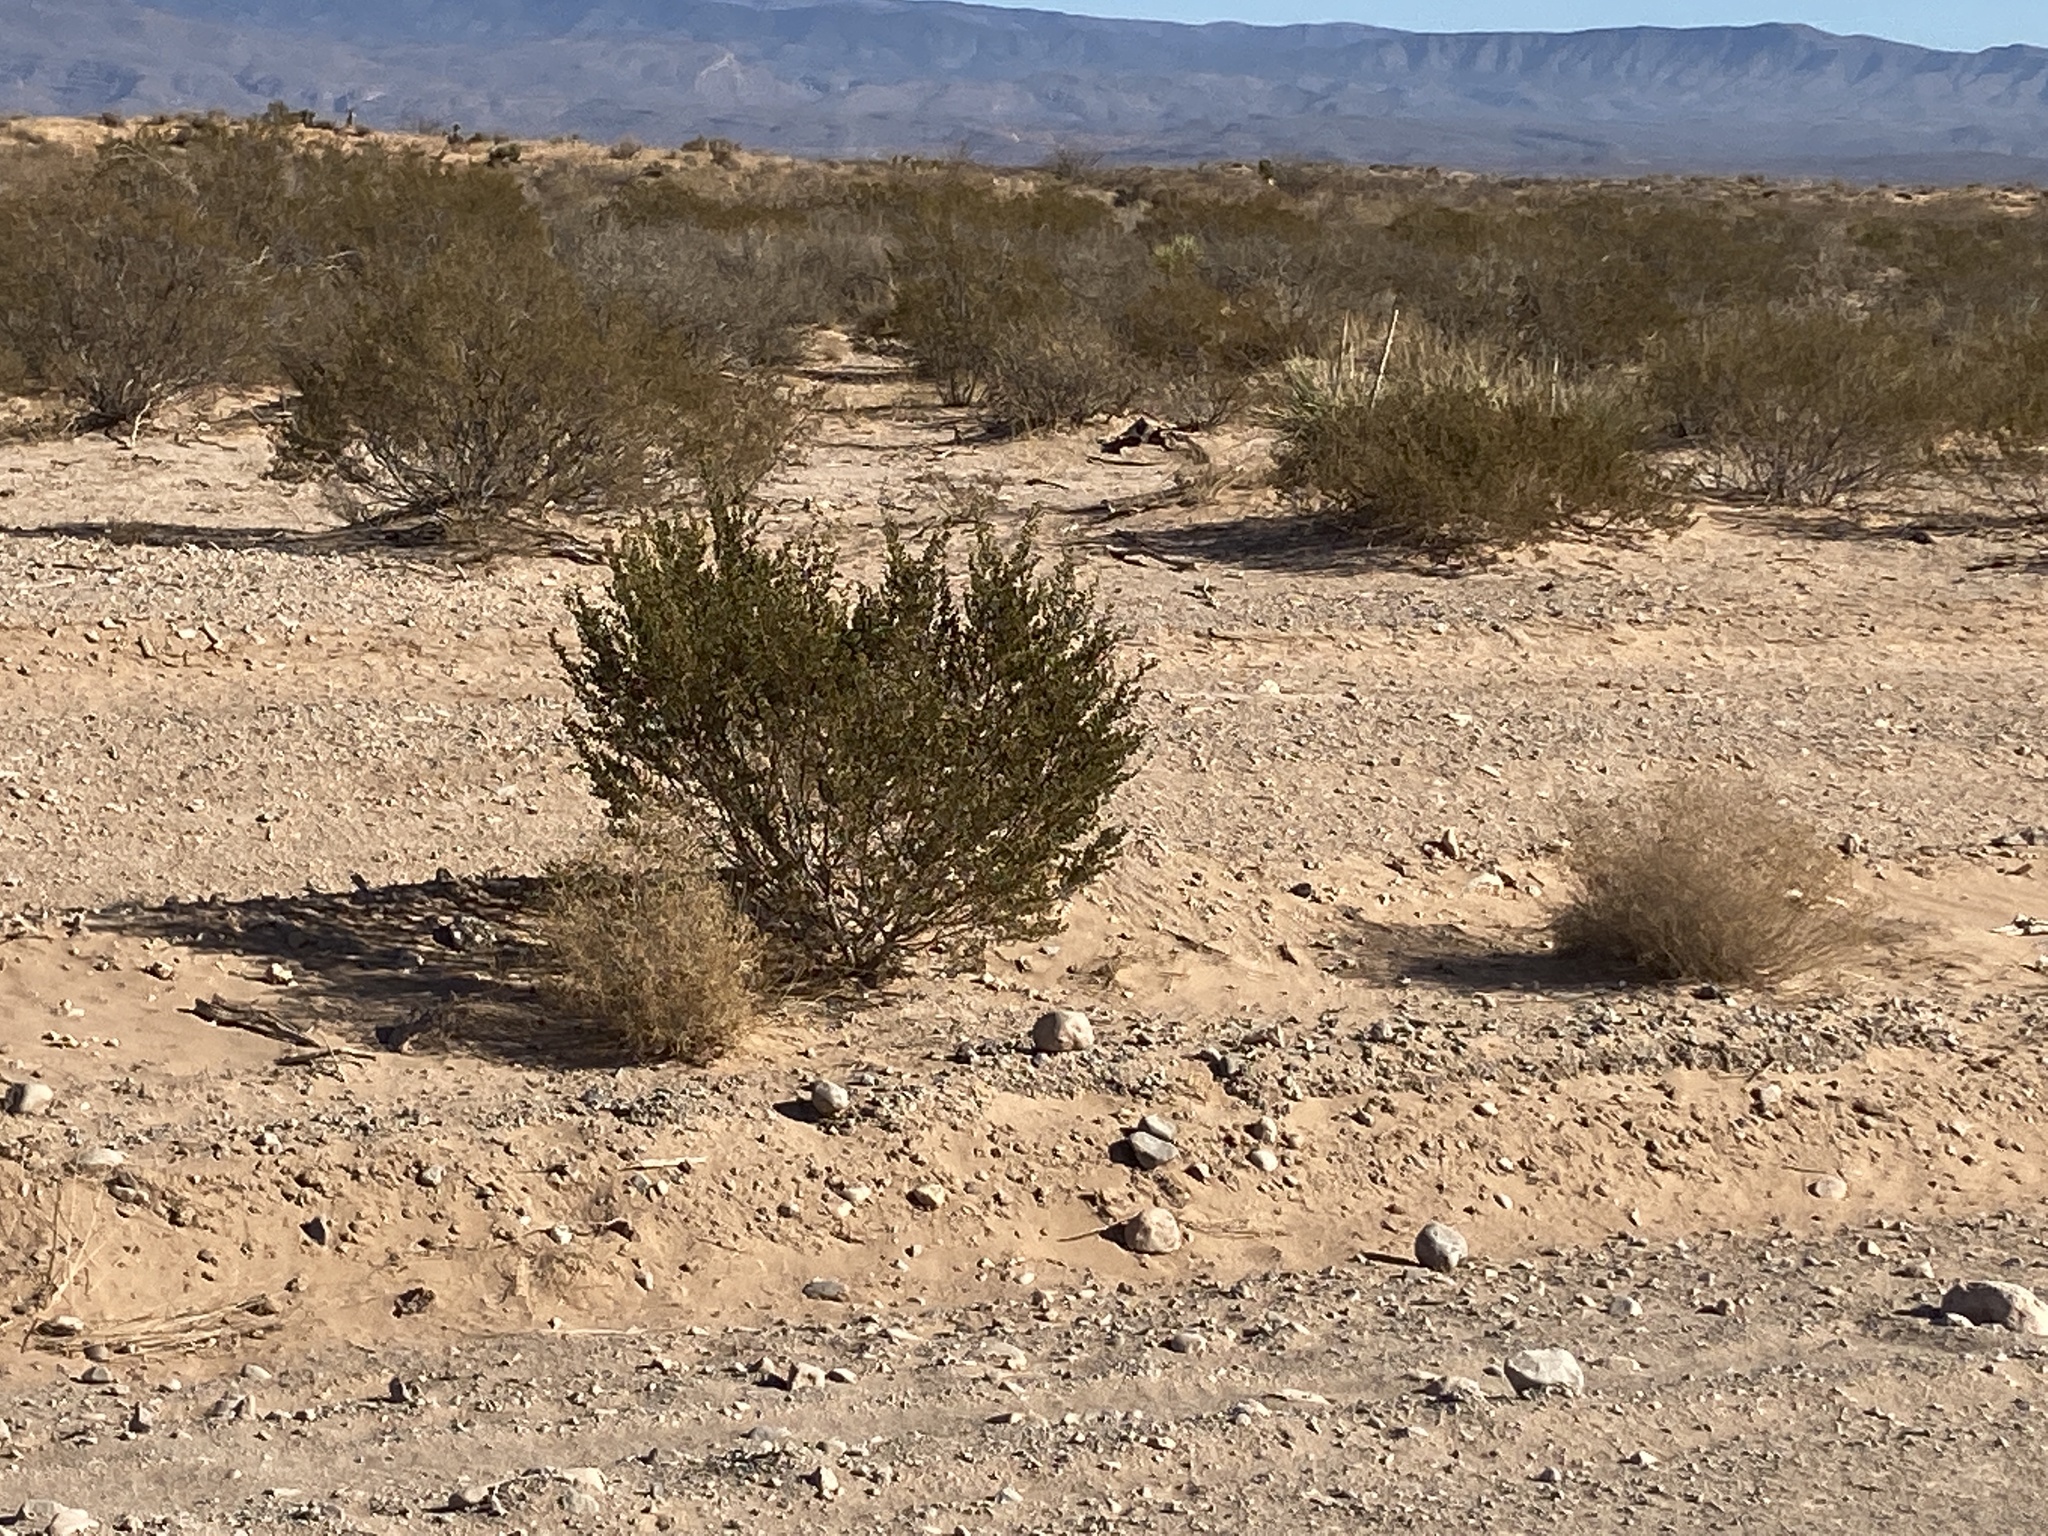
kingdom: Plantae
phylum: Tracheophyta
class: Magnoliopsida
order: Zygophyllales
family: Zygophyllaceae
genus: Larrea
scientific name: Larrea tridentata
